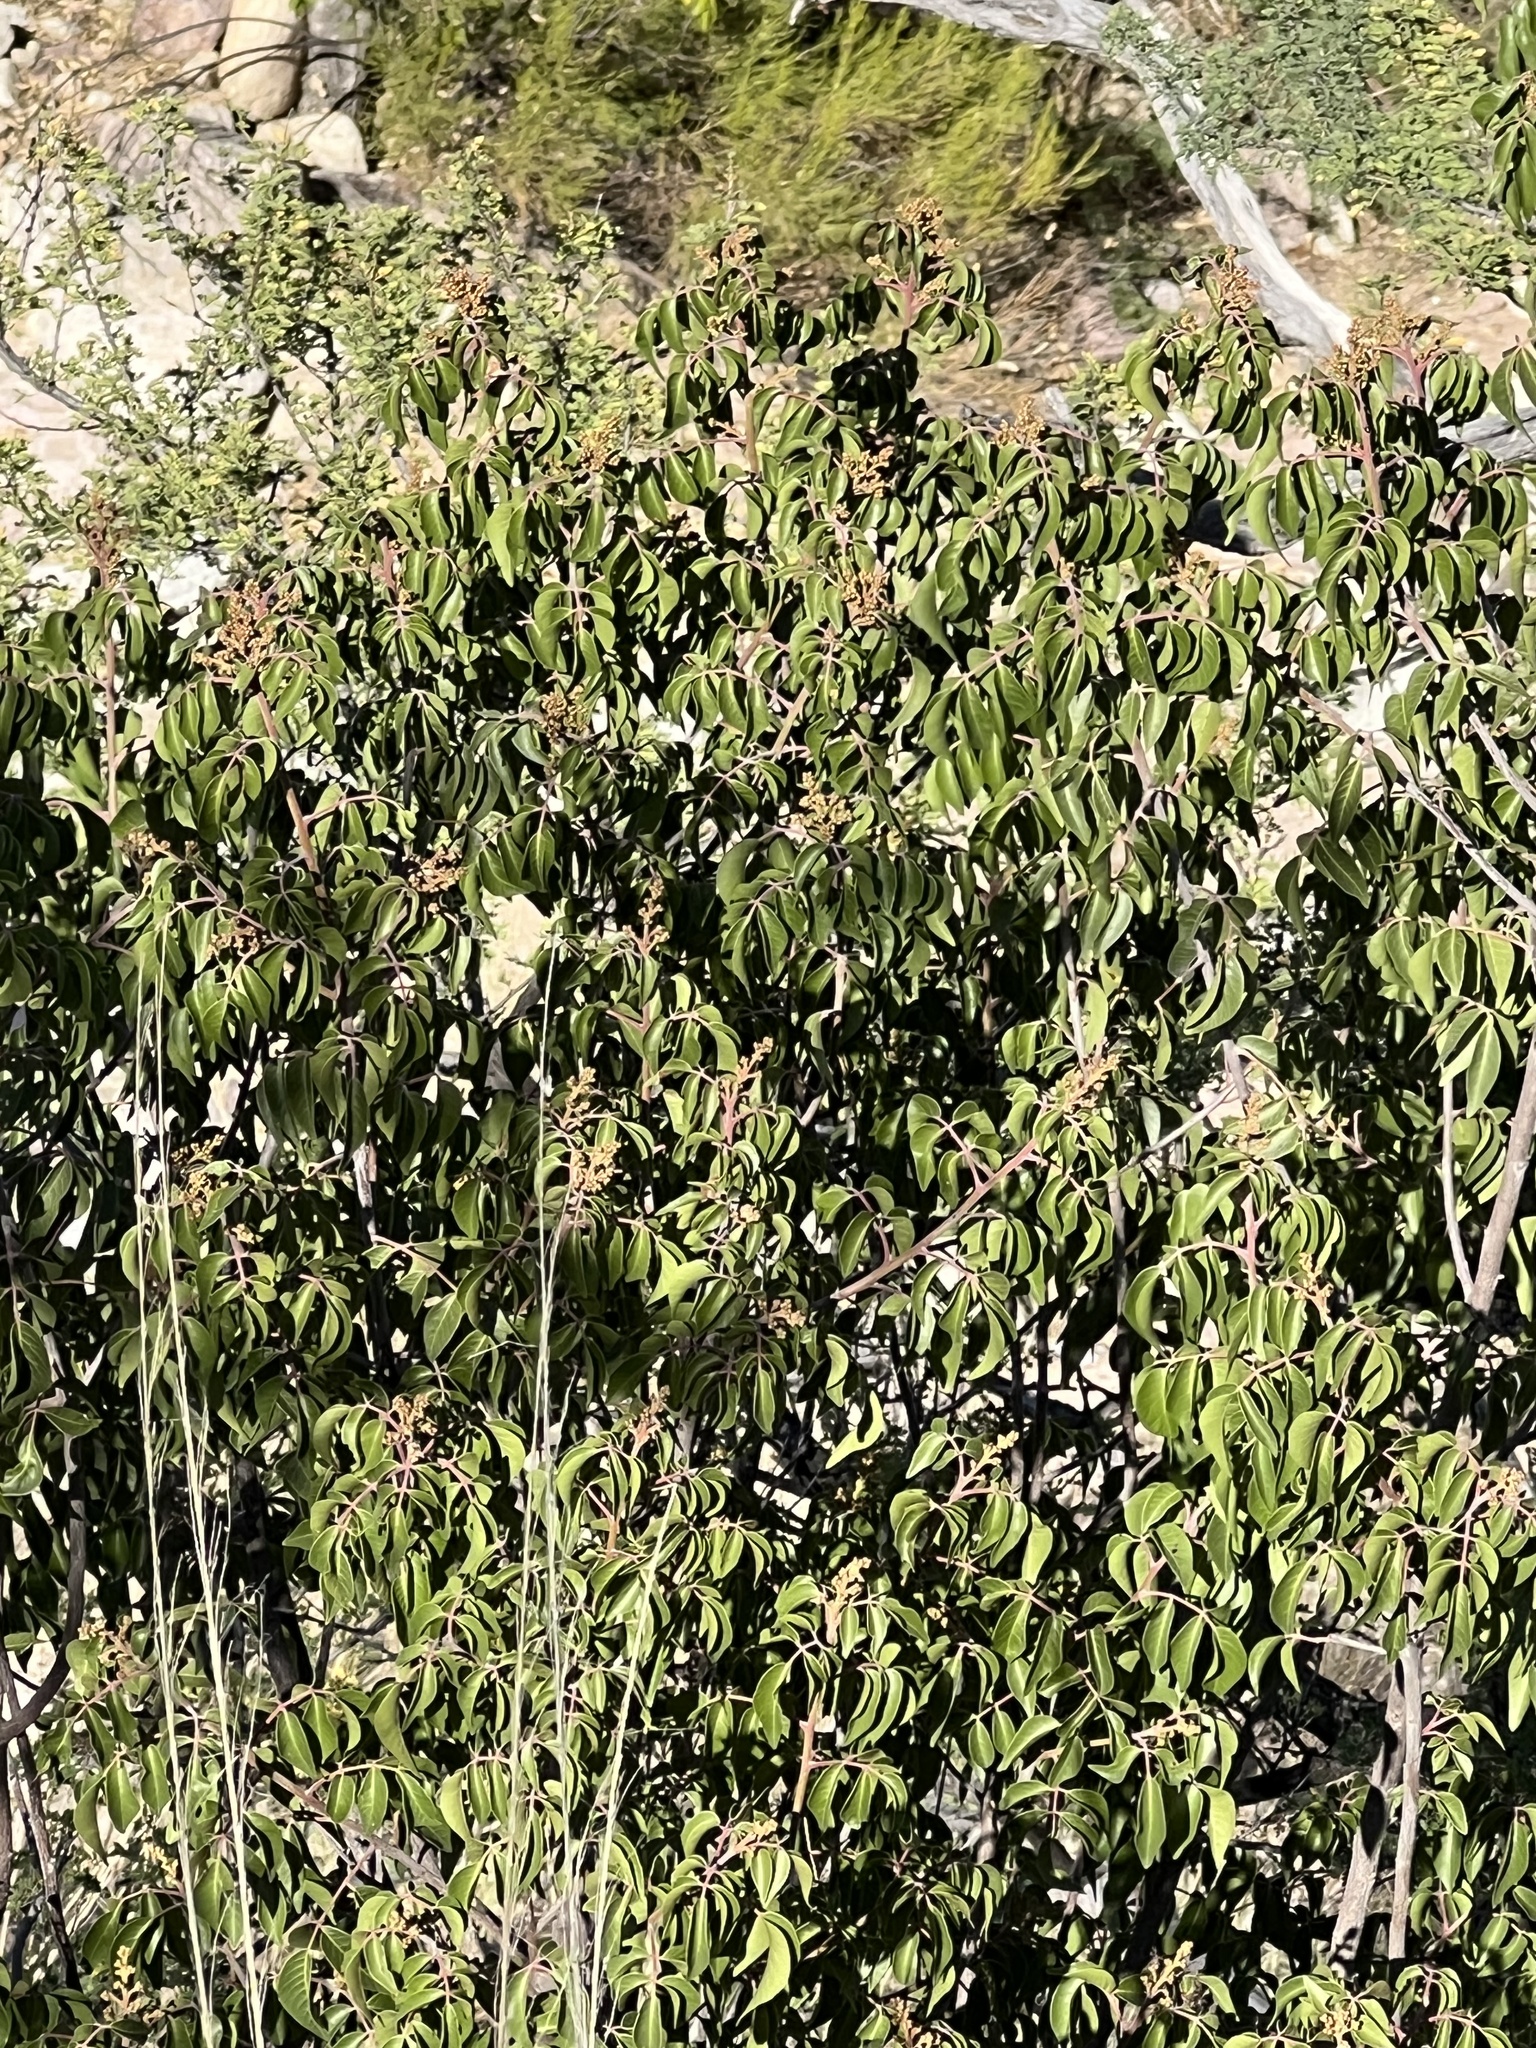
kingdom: Plantae
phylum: Tracheophyta
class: Magnoliopsida
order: Sapindales
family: Anacardiaceae
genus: Rhus
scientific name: Rhus virens
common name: Evergreen sumac
